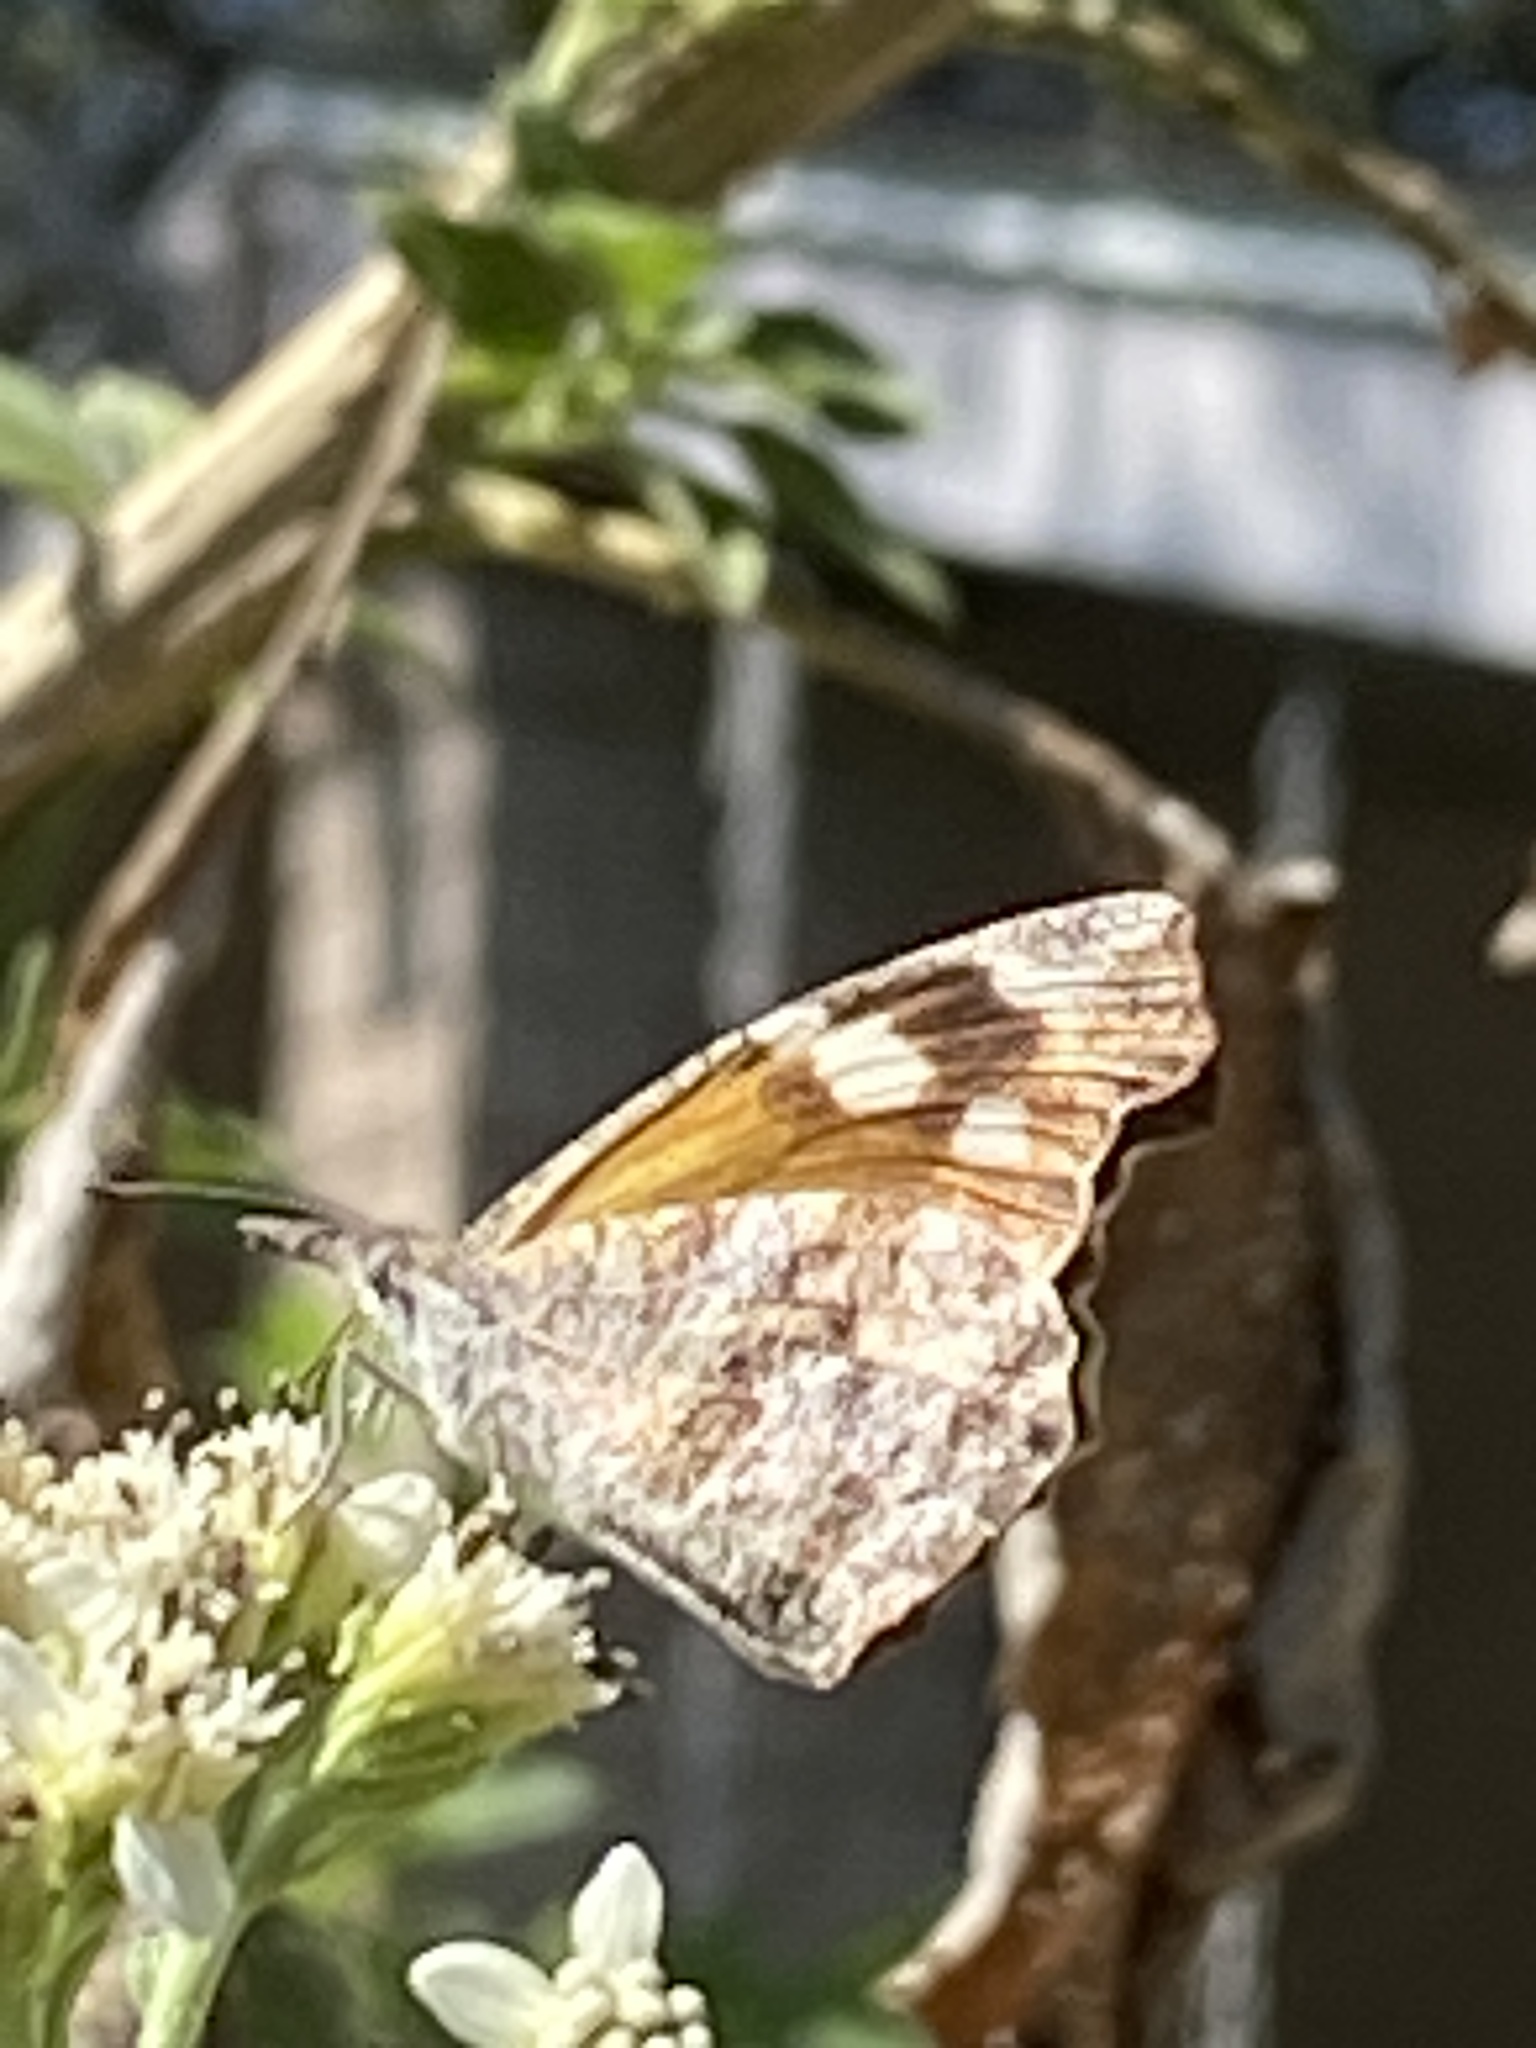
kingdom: Animalia
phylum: Arthropoda
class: Insecta
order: Lepidoptera
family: Nymphalidae
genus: Libytheana
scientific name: Libytheana carinenta
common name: American snout
